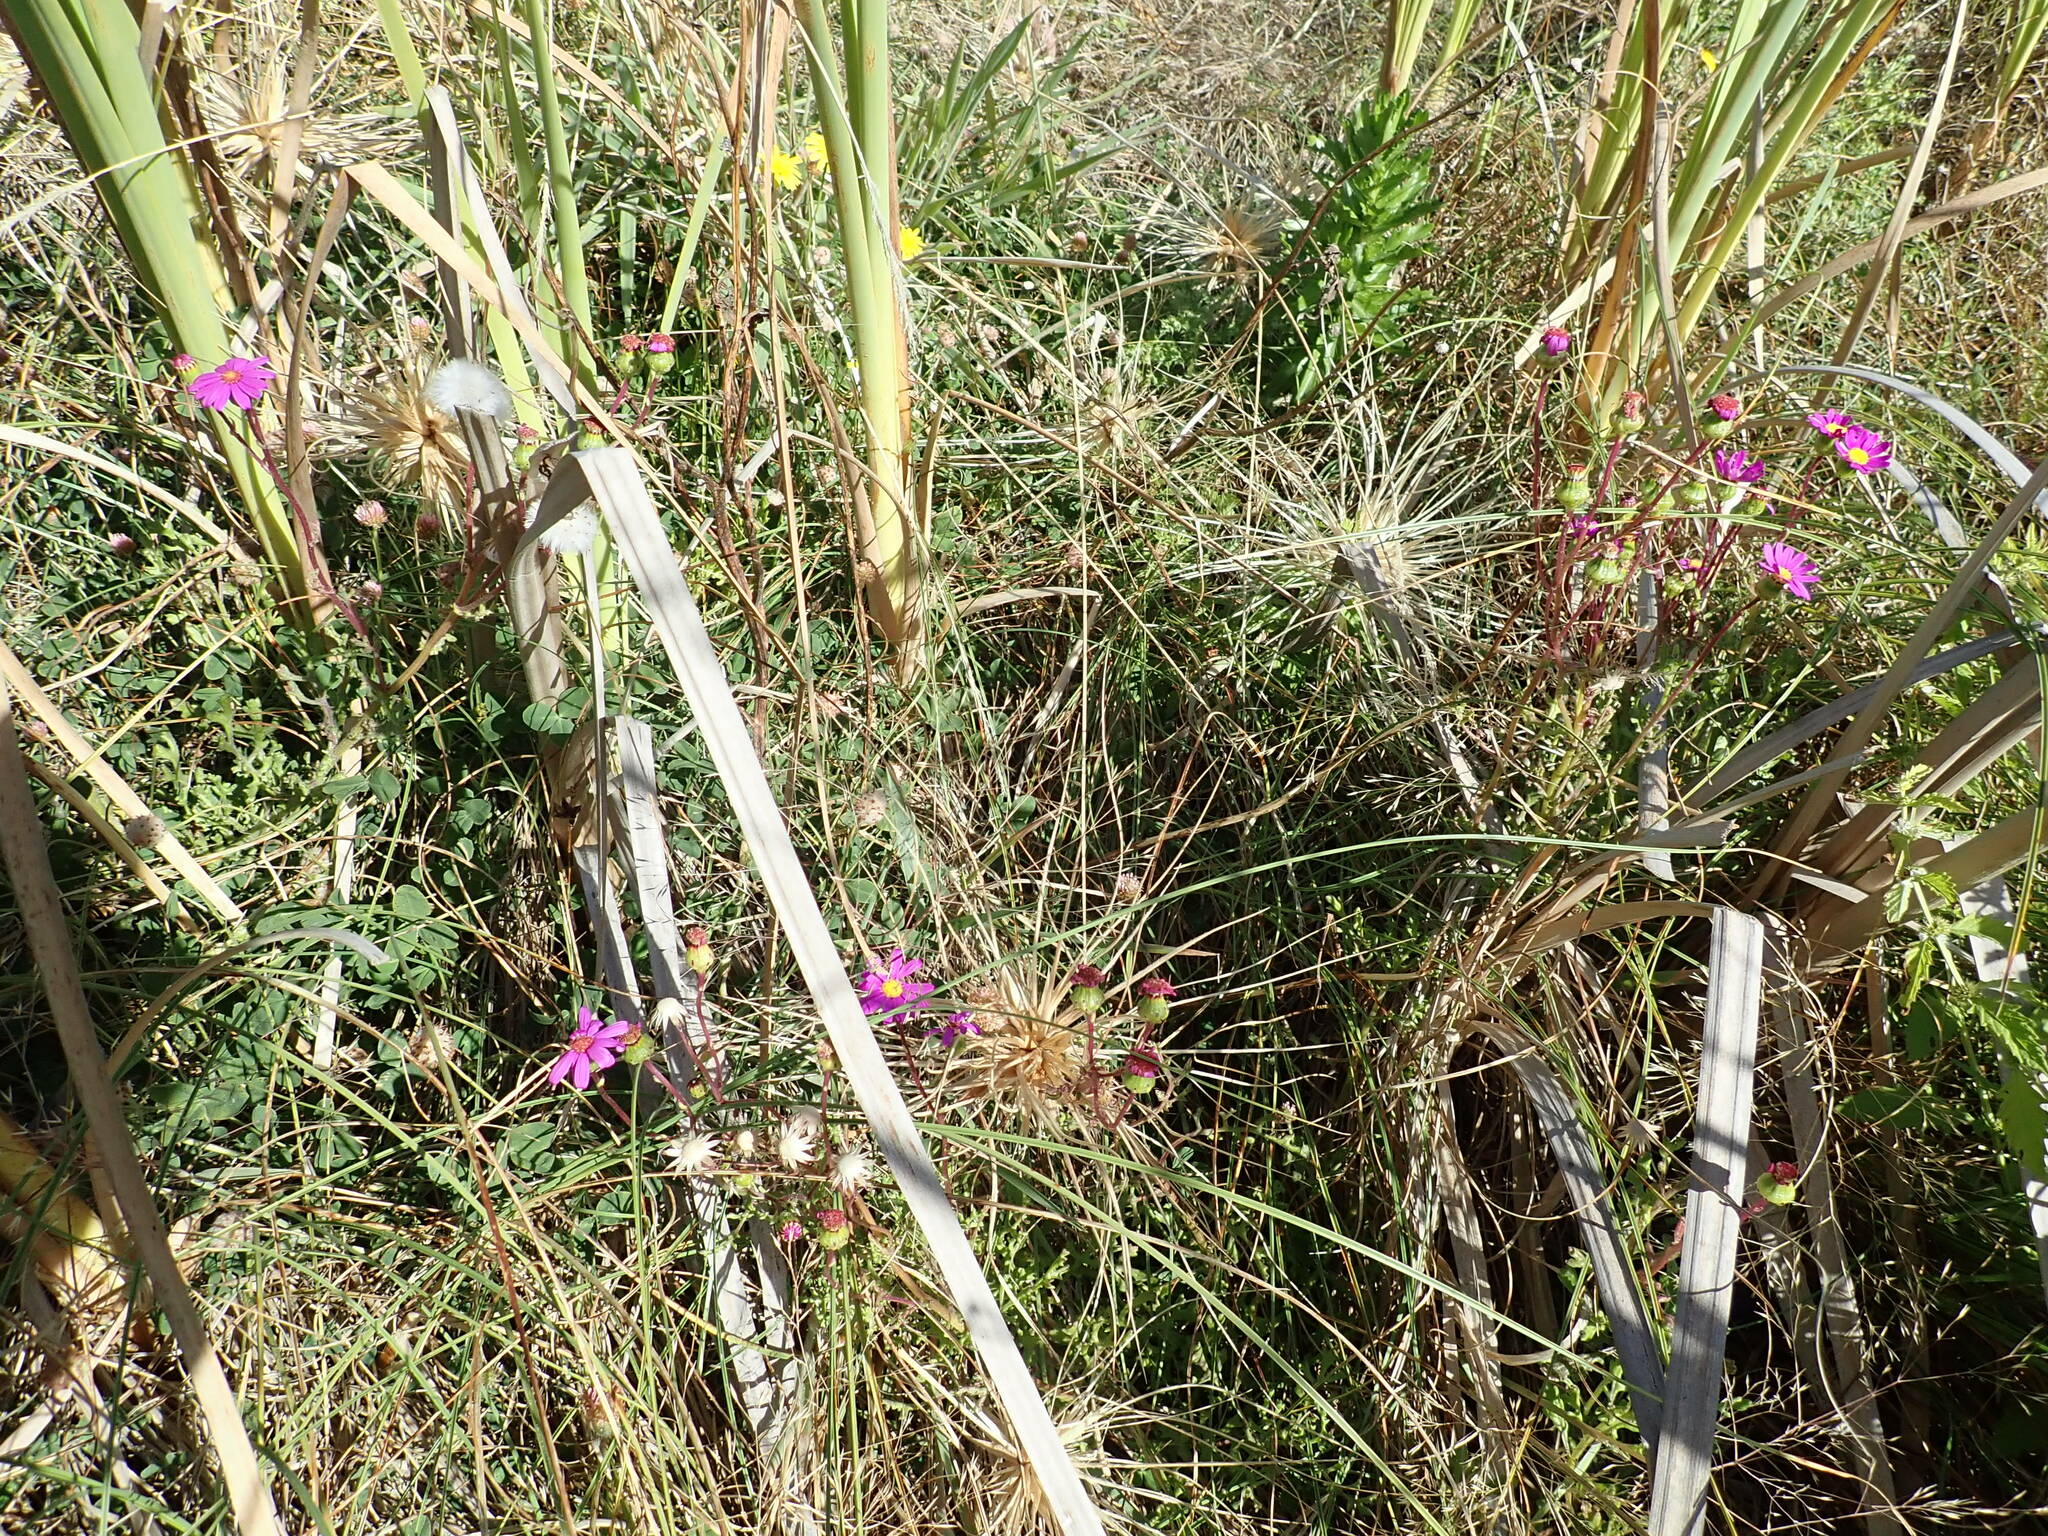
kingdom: Plantae
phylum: Tracheophyta
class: Magnoliopsida
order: Asterales
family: Asteraceae
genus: Senecio
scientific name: Senecio elegans
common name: Purple groundsel
